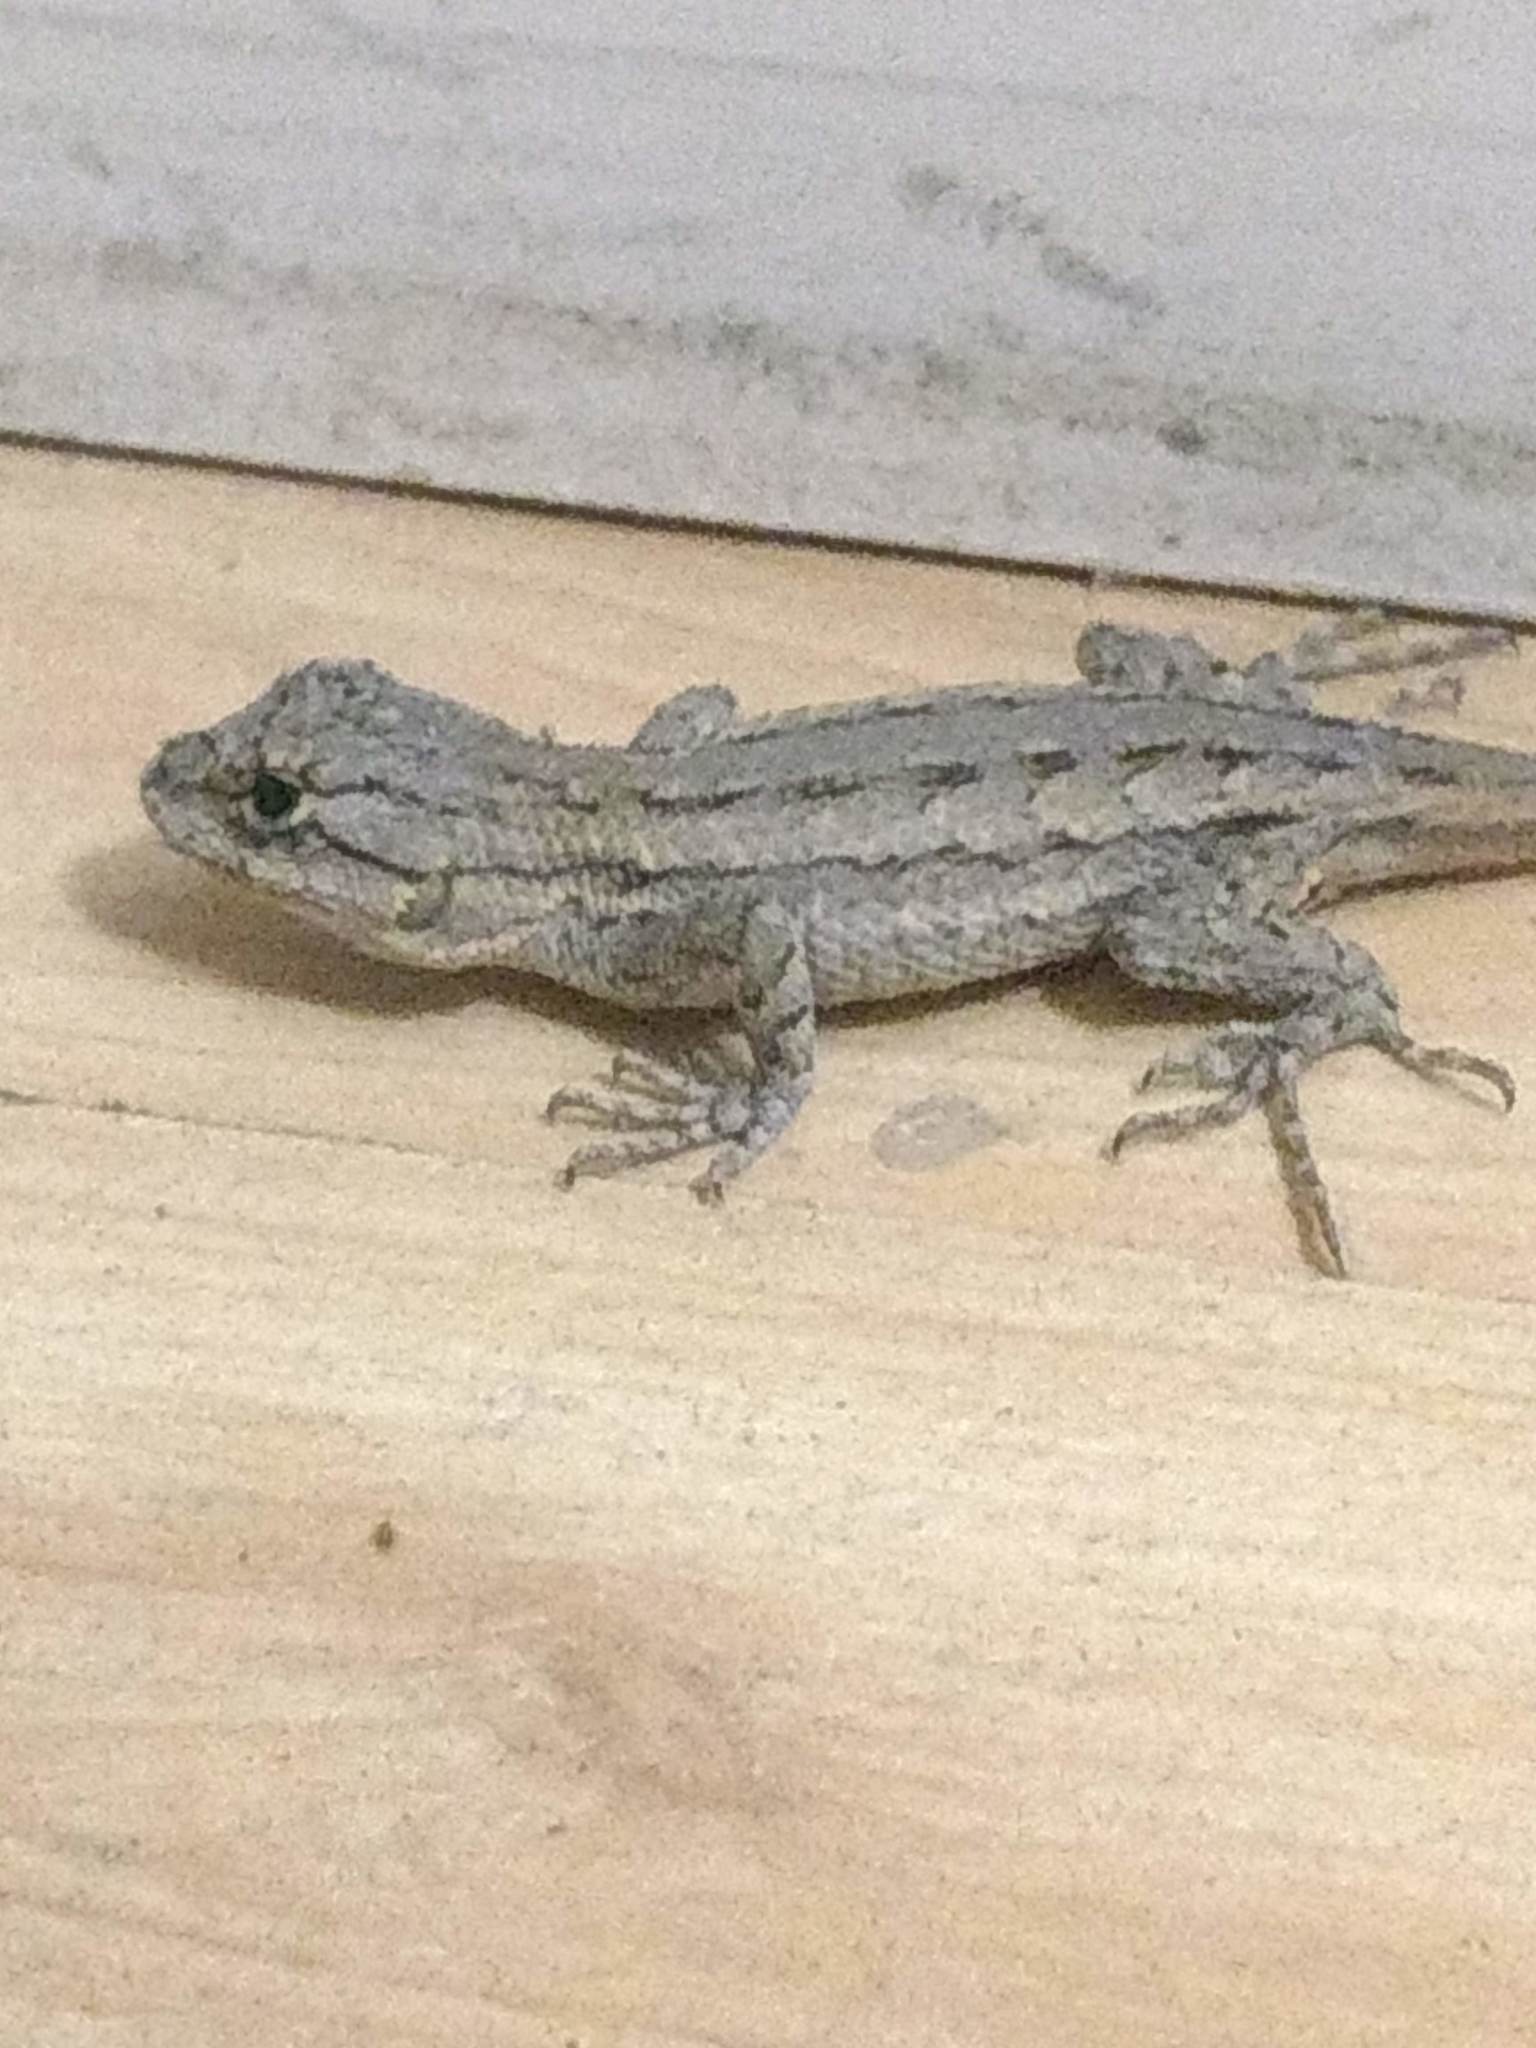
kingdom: Animalia
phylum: Chordata
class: Squamata
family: Phrynosomatidae
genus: Sceloporus
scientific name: Sceloporus occidentalis
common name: Western fence lizard
